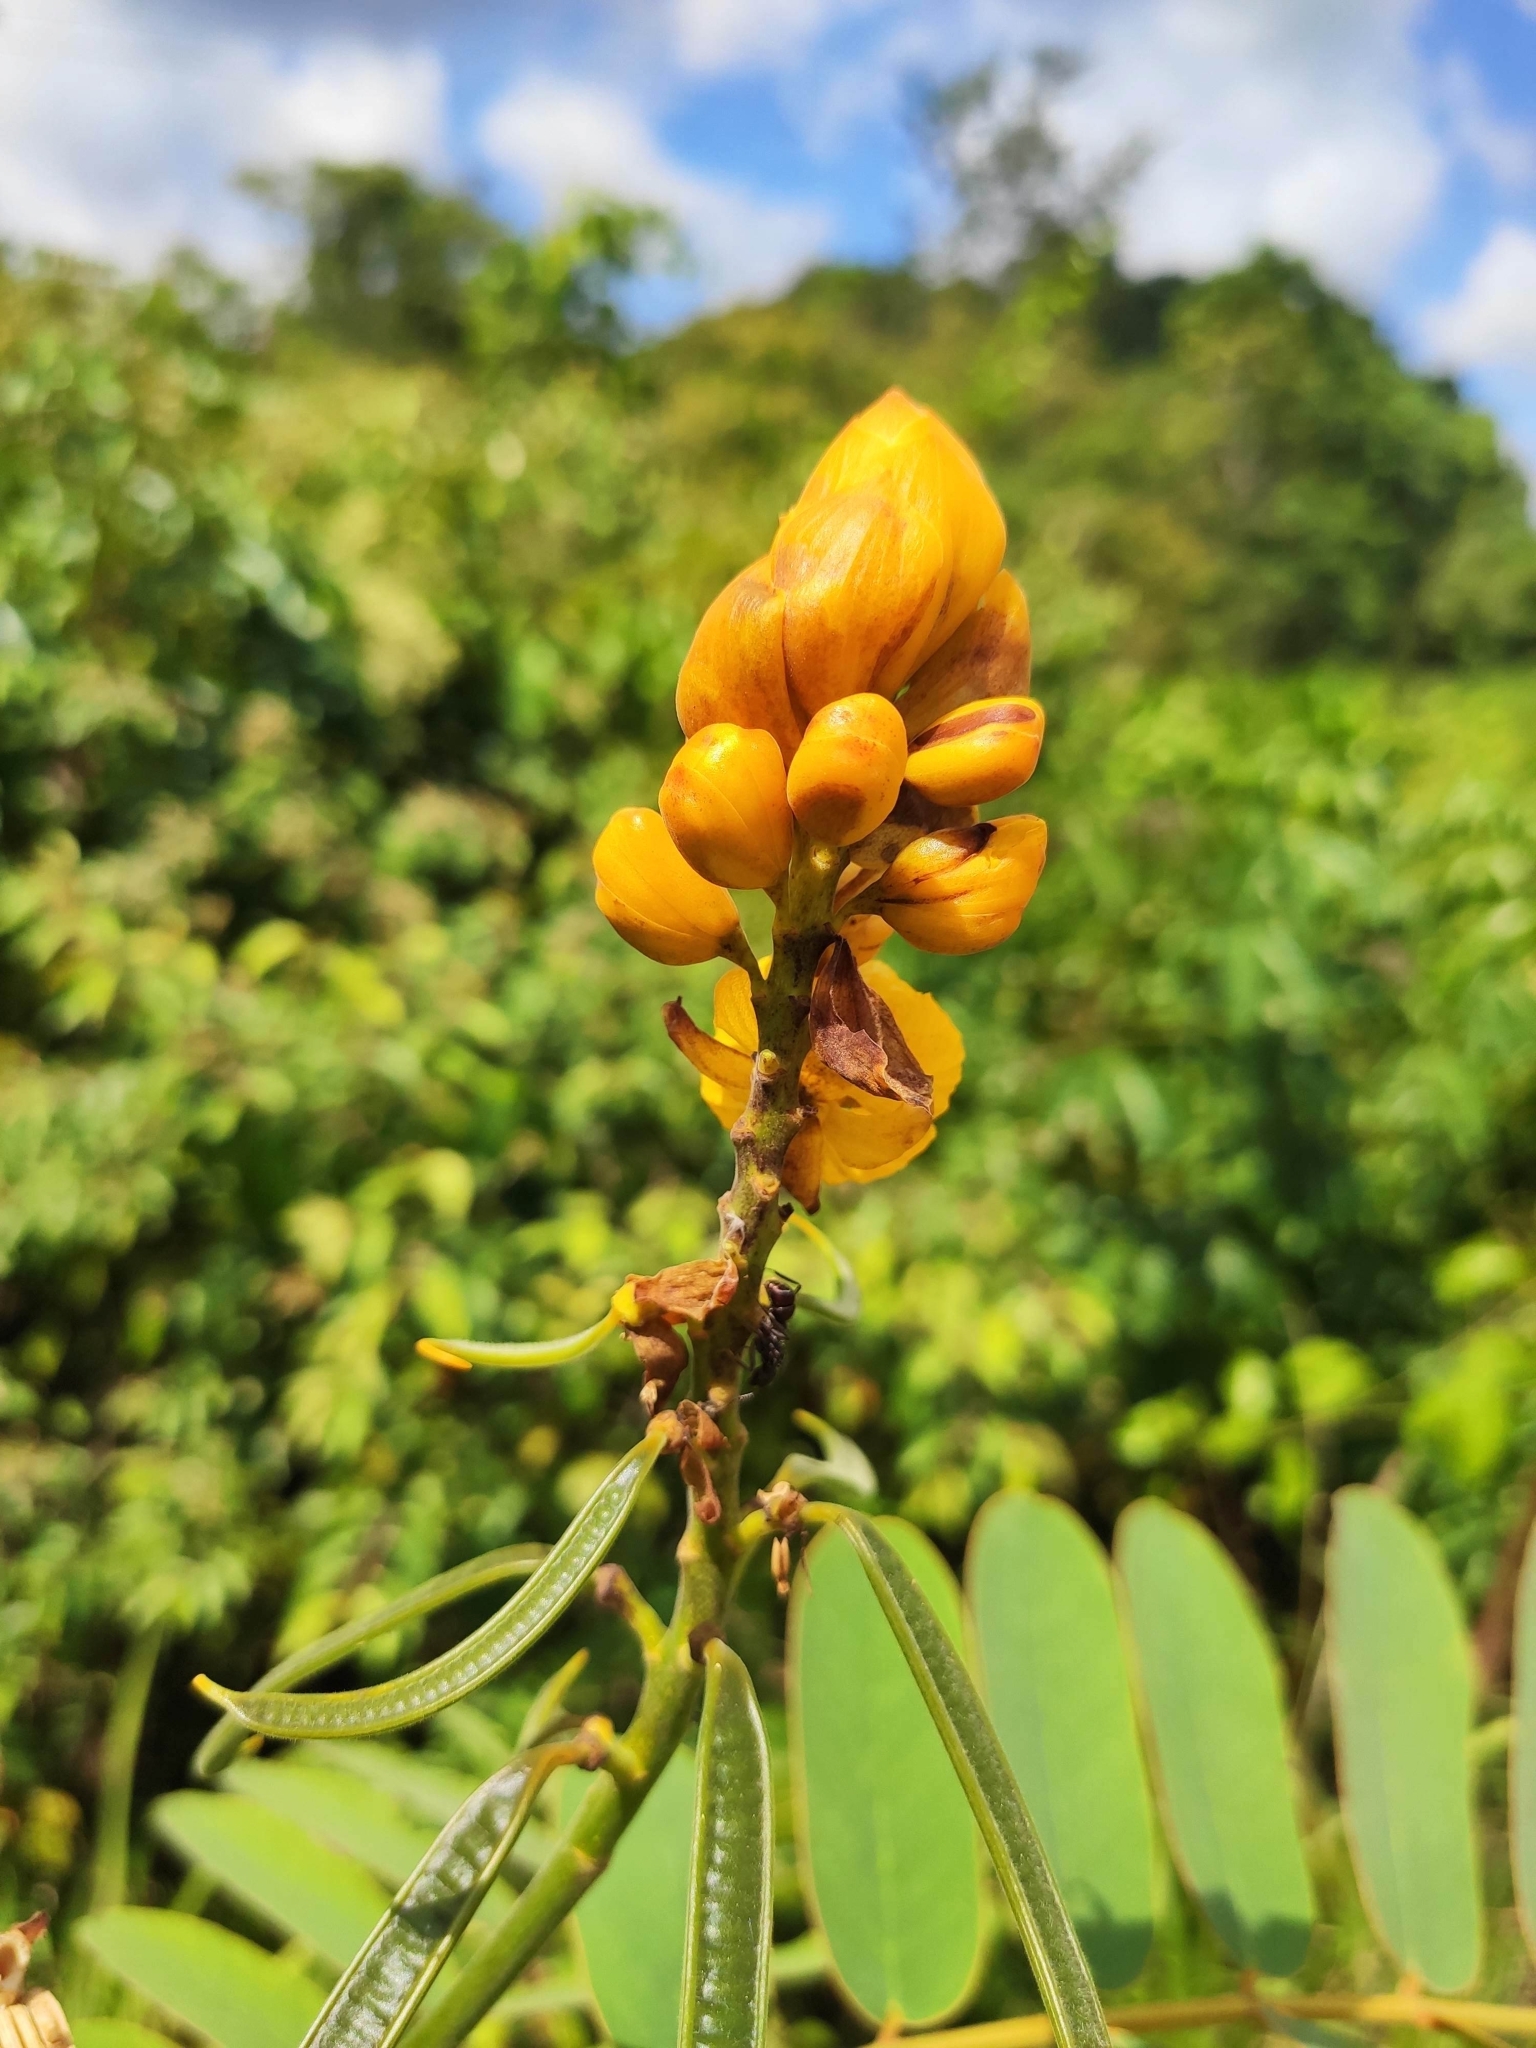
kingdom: Plantae
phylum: Tracheophyta
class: Magnoliopsida
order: Fabales
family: Fabaceae
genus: Senna
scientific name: Senna reticulata
